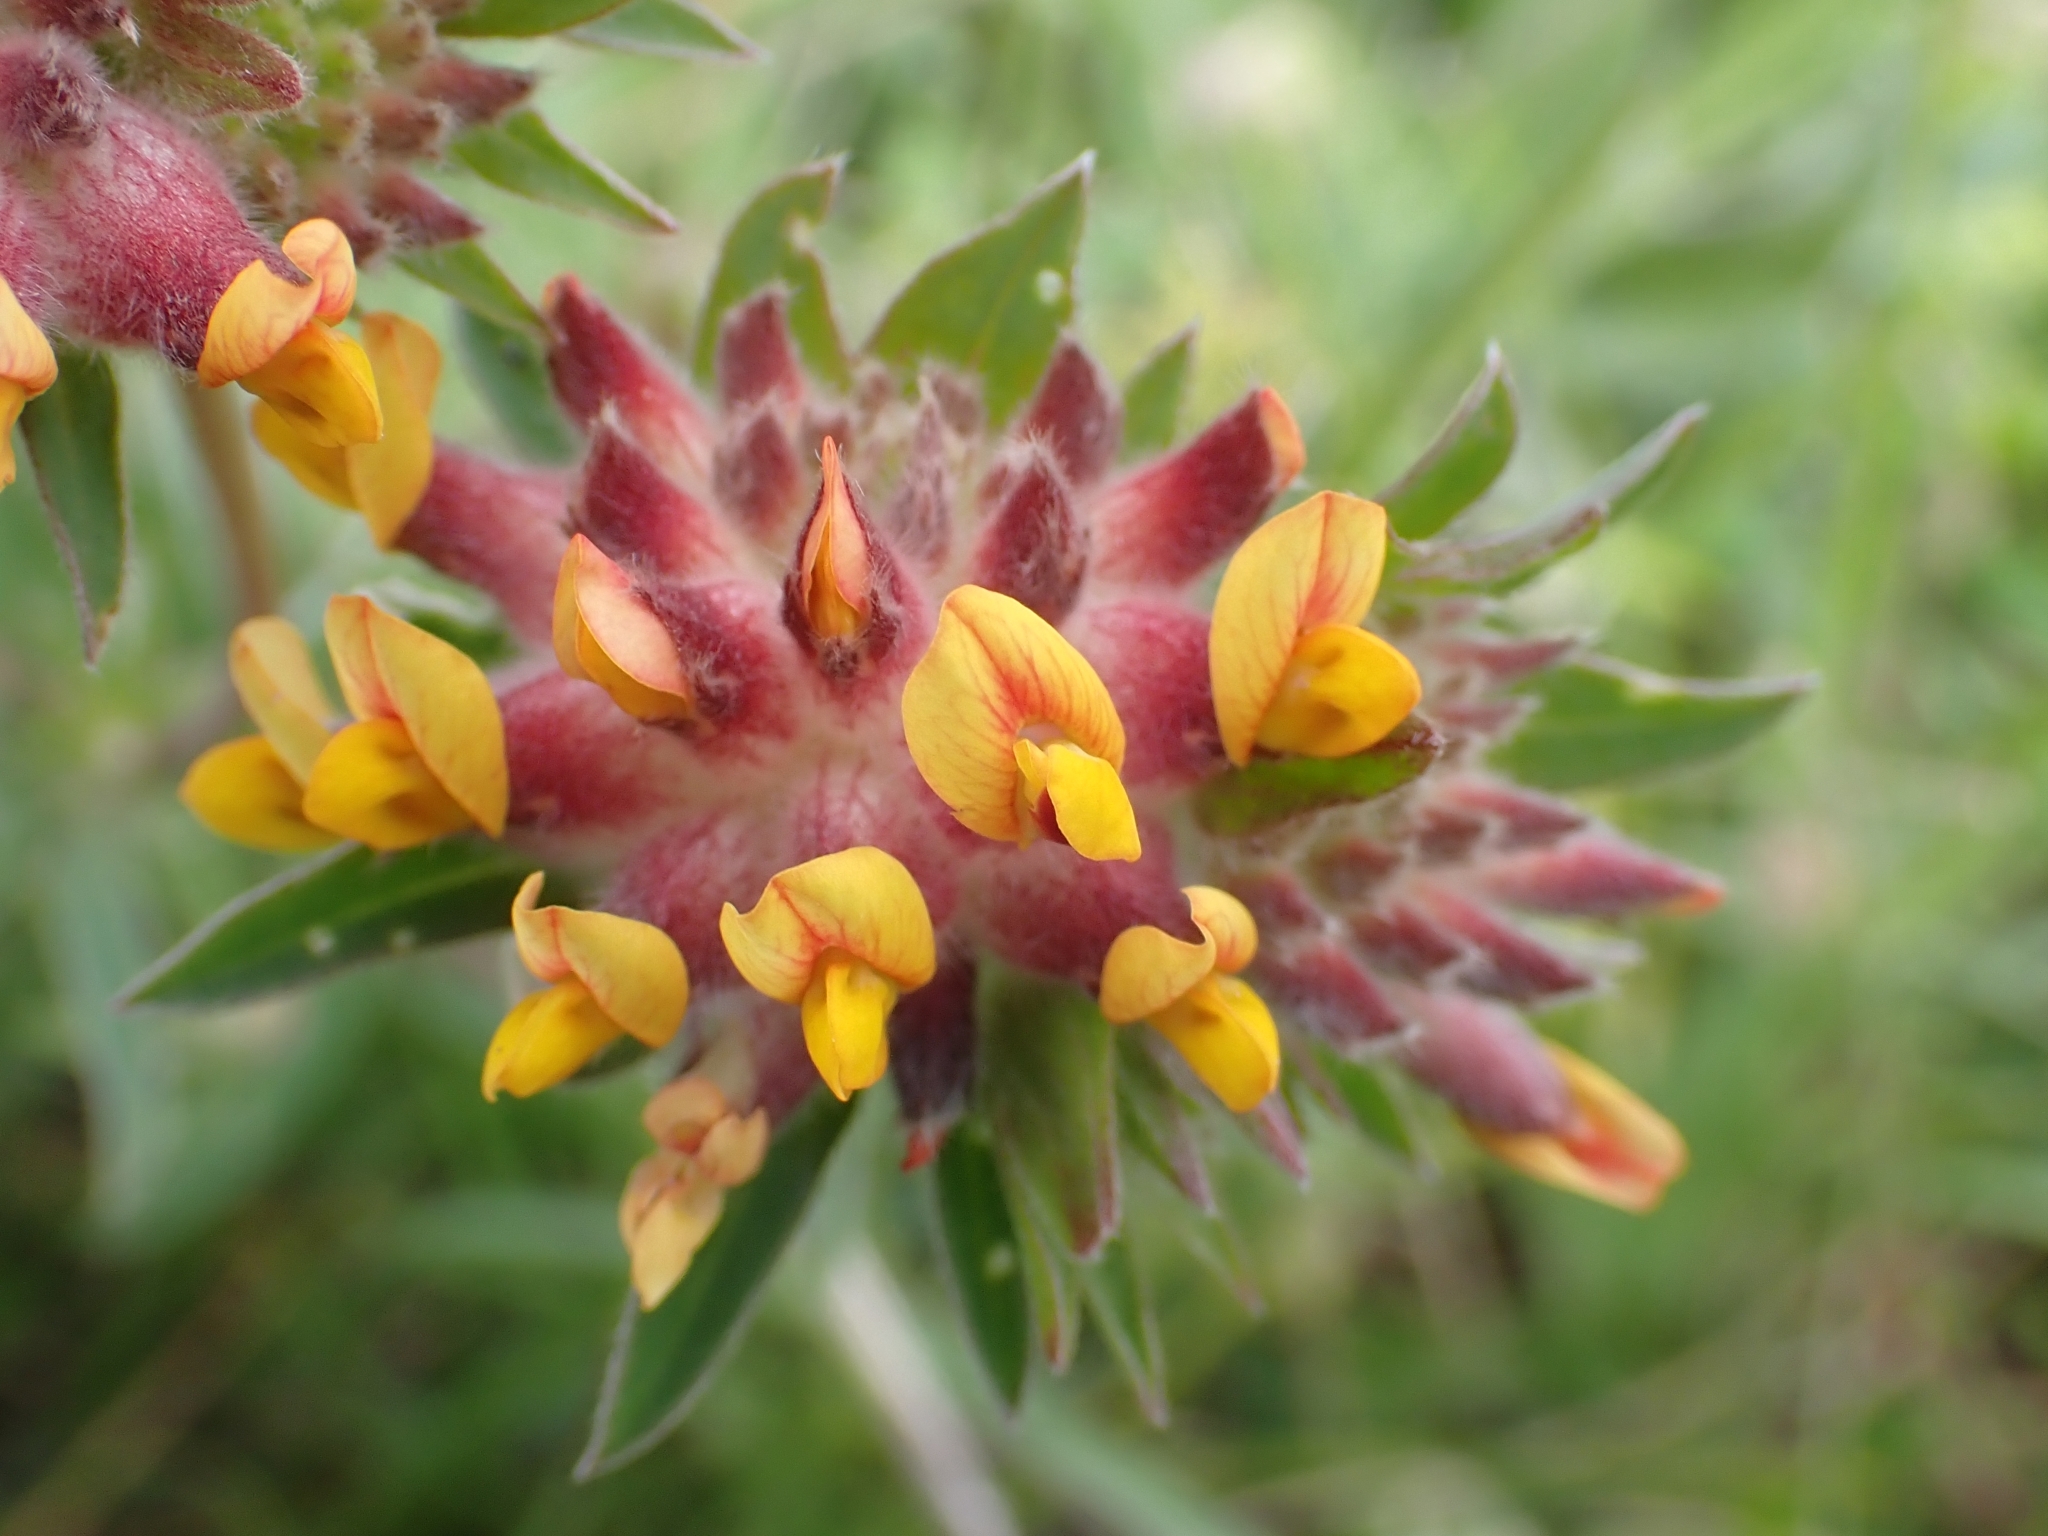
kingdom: Plantae
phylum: Tracheophyta
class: Magnoliopsida
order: Fabales
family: Fabaceae
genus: Anthyllis
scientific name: Anthyllis vulneraria
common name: Kidney vetch
